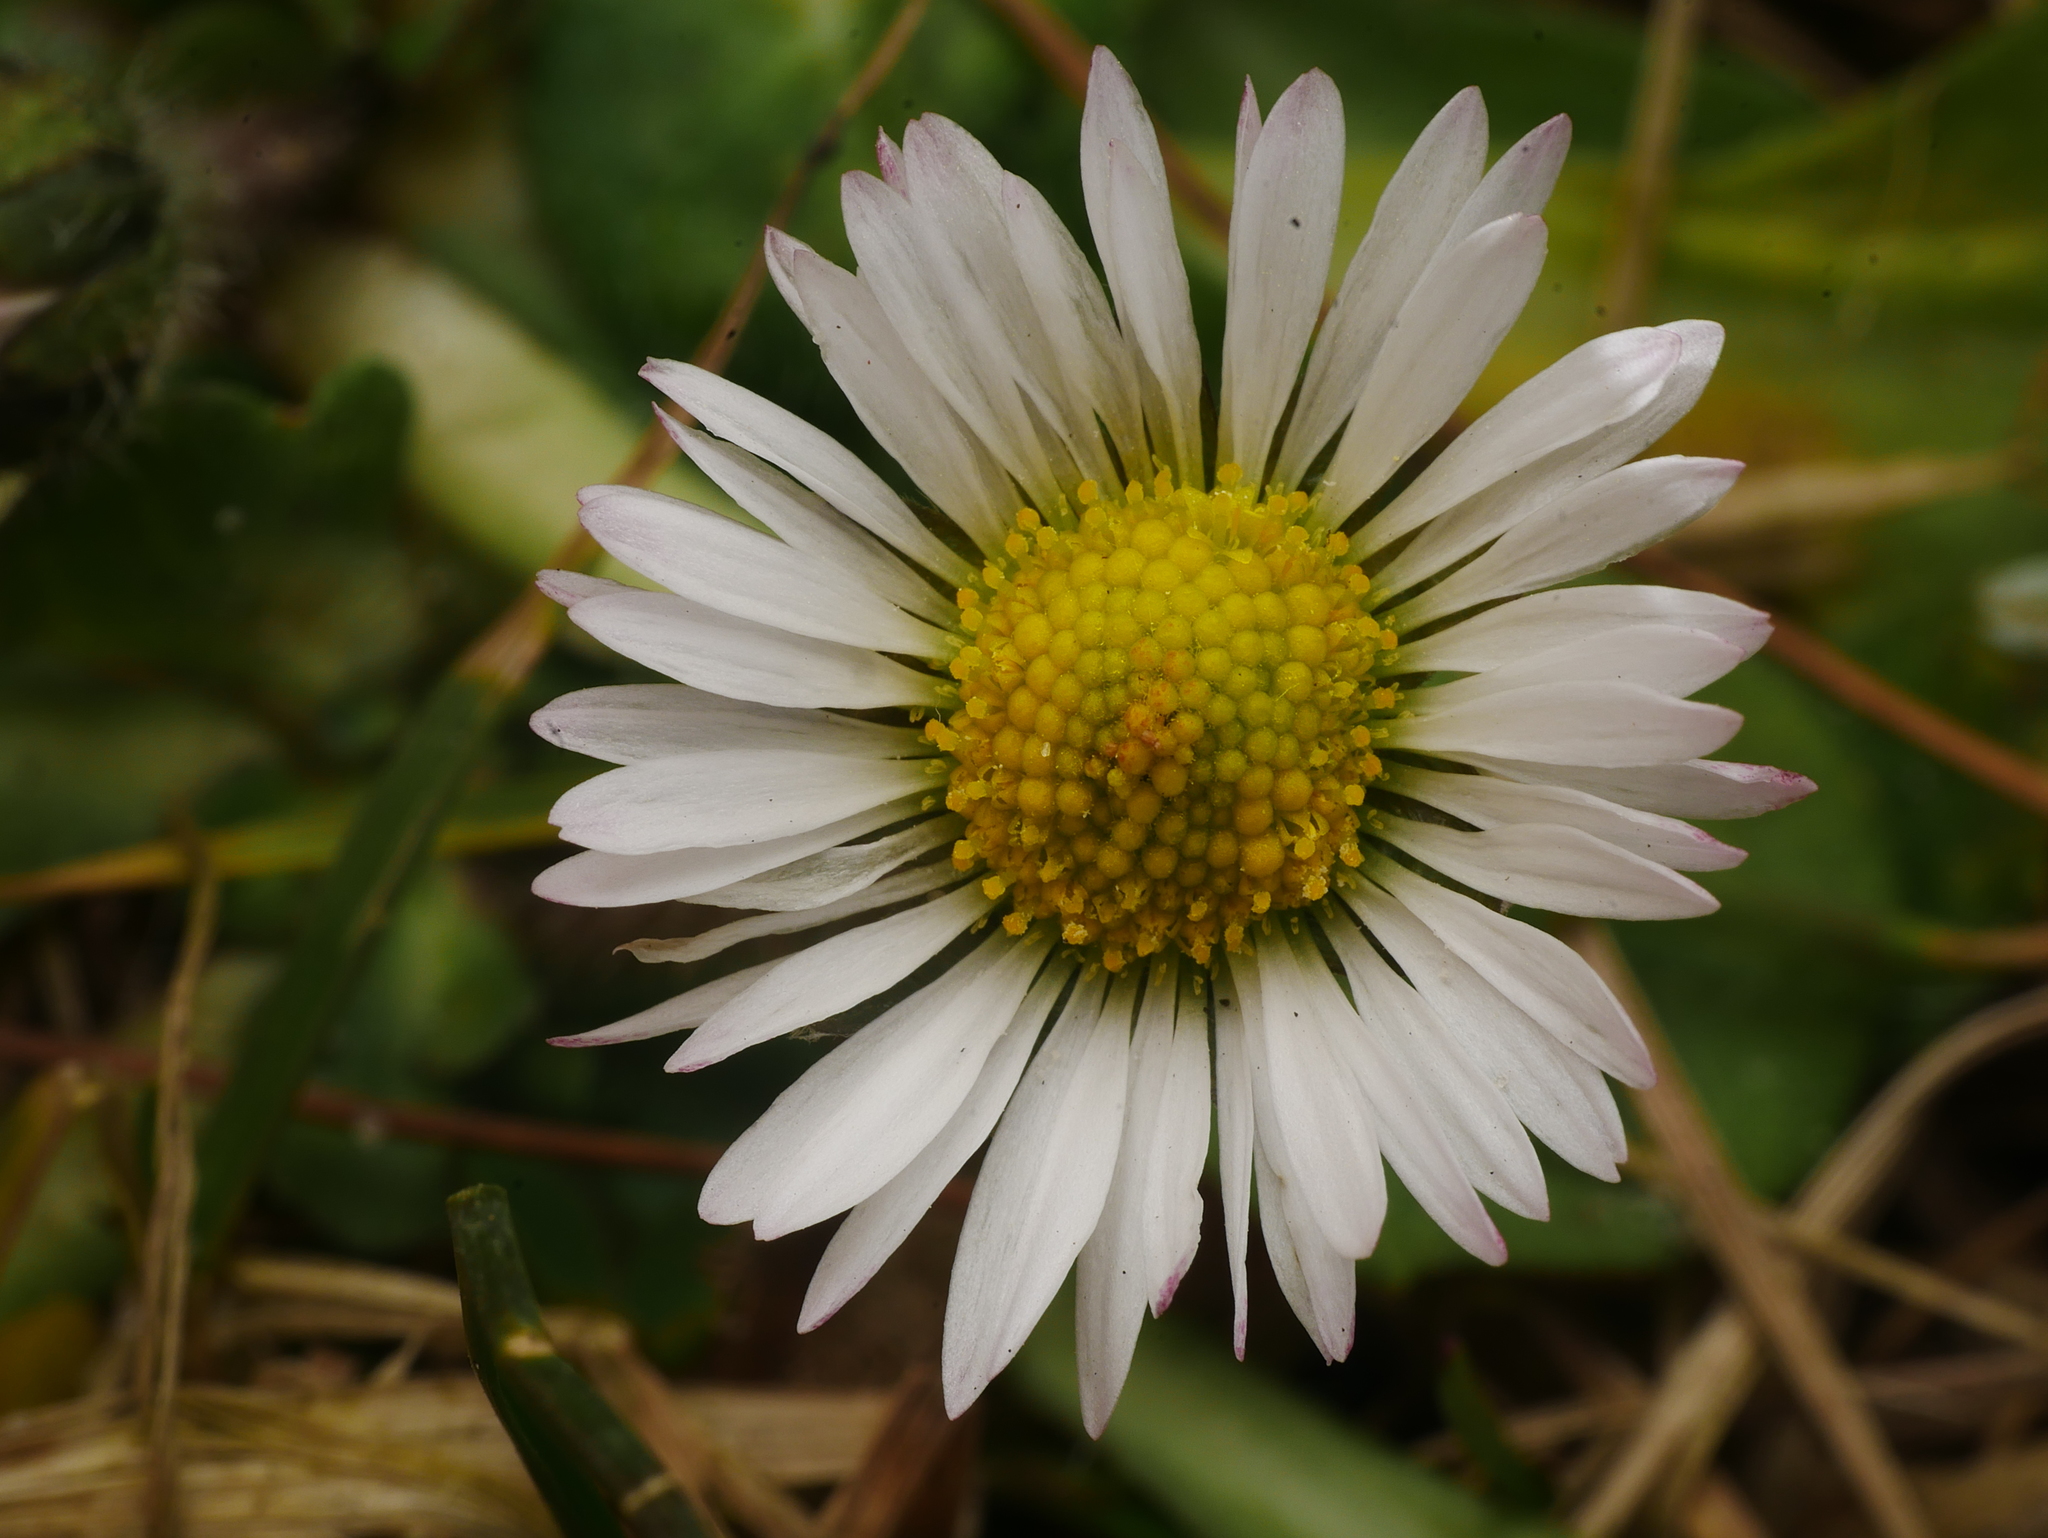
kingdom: Plantae
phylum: Tracheophyta
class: Magnoliopsida
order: Asterales
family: Asteraceae
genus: Bellis
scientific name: Bellis perennis
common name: Lawndaisy
